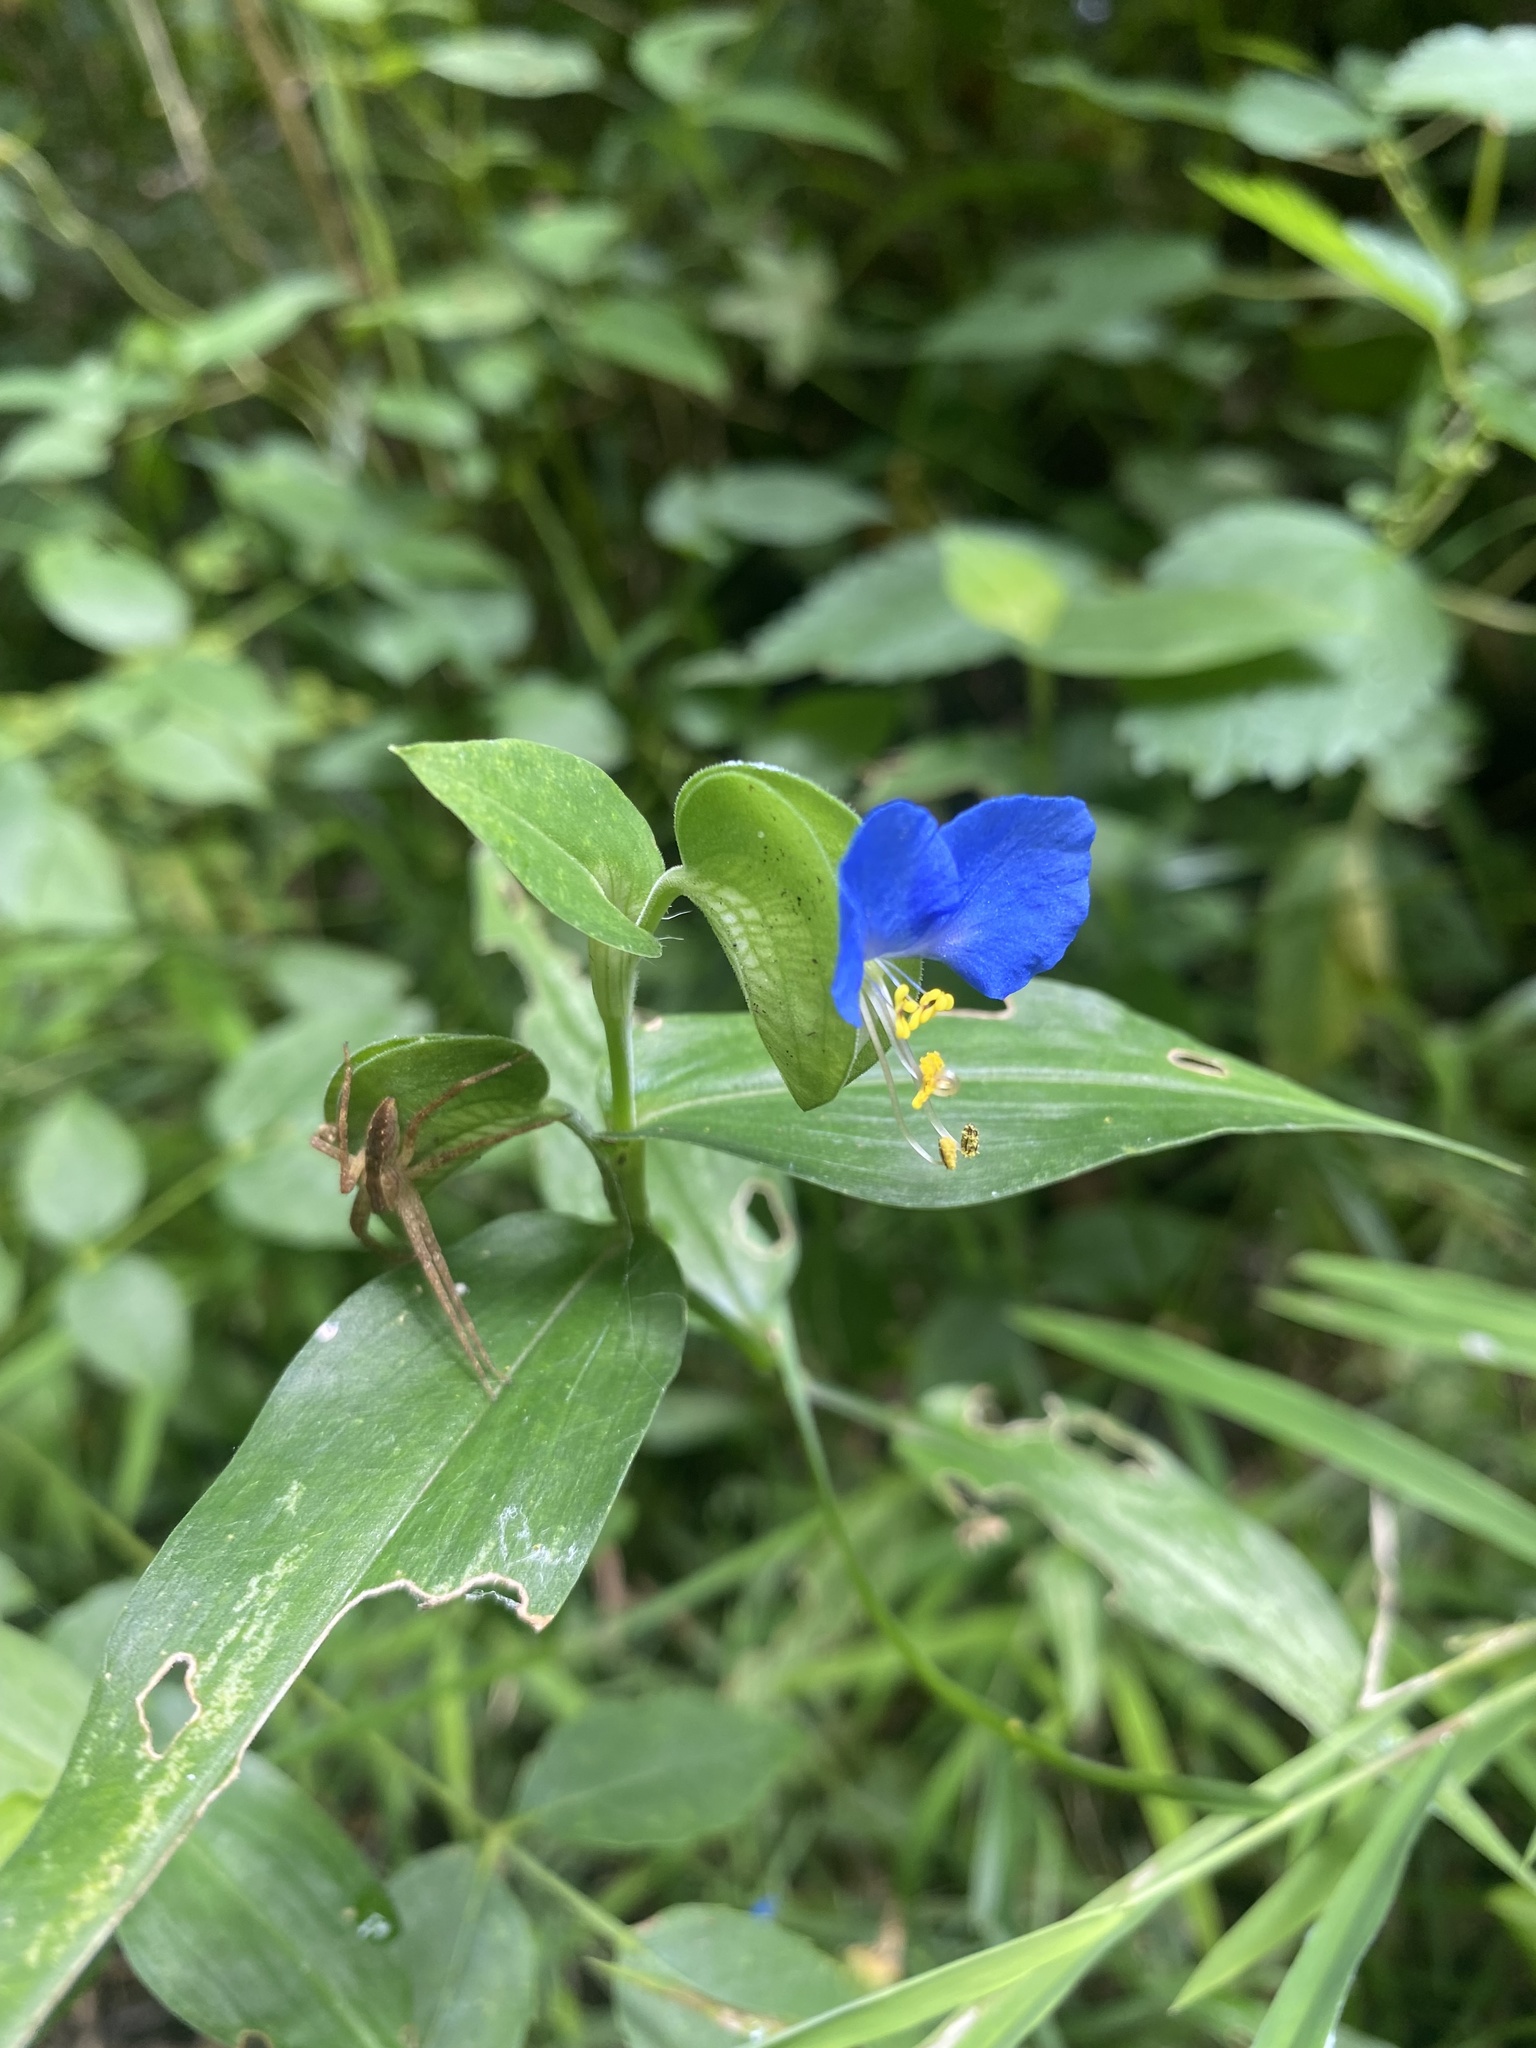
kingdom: Plantae
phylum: Tracheophyta
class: Liliopsida
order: Commelinales
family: Commelinaceae
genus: Commelina
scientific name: Commelina communis
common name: Asiatic dayflower
